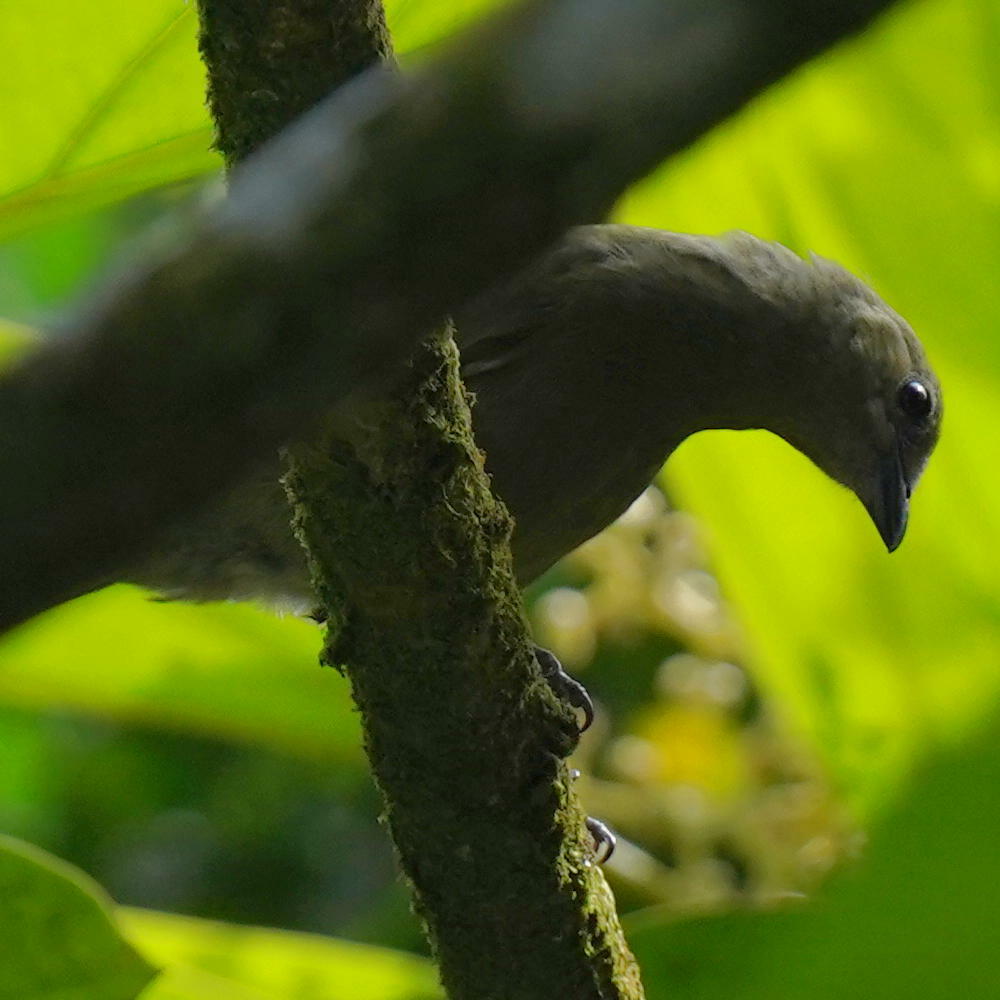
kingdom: Animalia
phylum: Chordata
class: Aves
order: Passeriformes
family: Thraupidae
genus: Thraupis
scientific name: Thraupis palmarum
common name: Palm tanager
